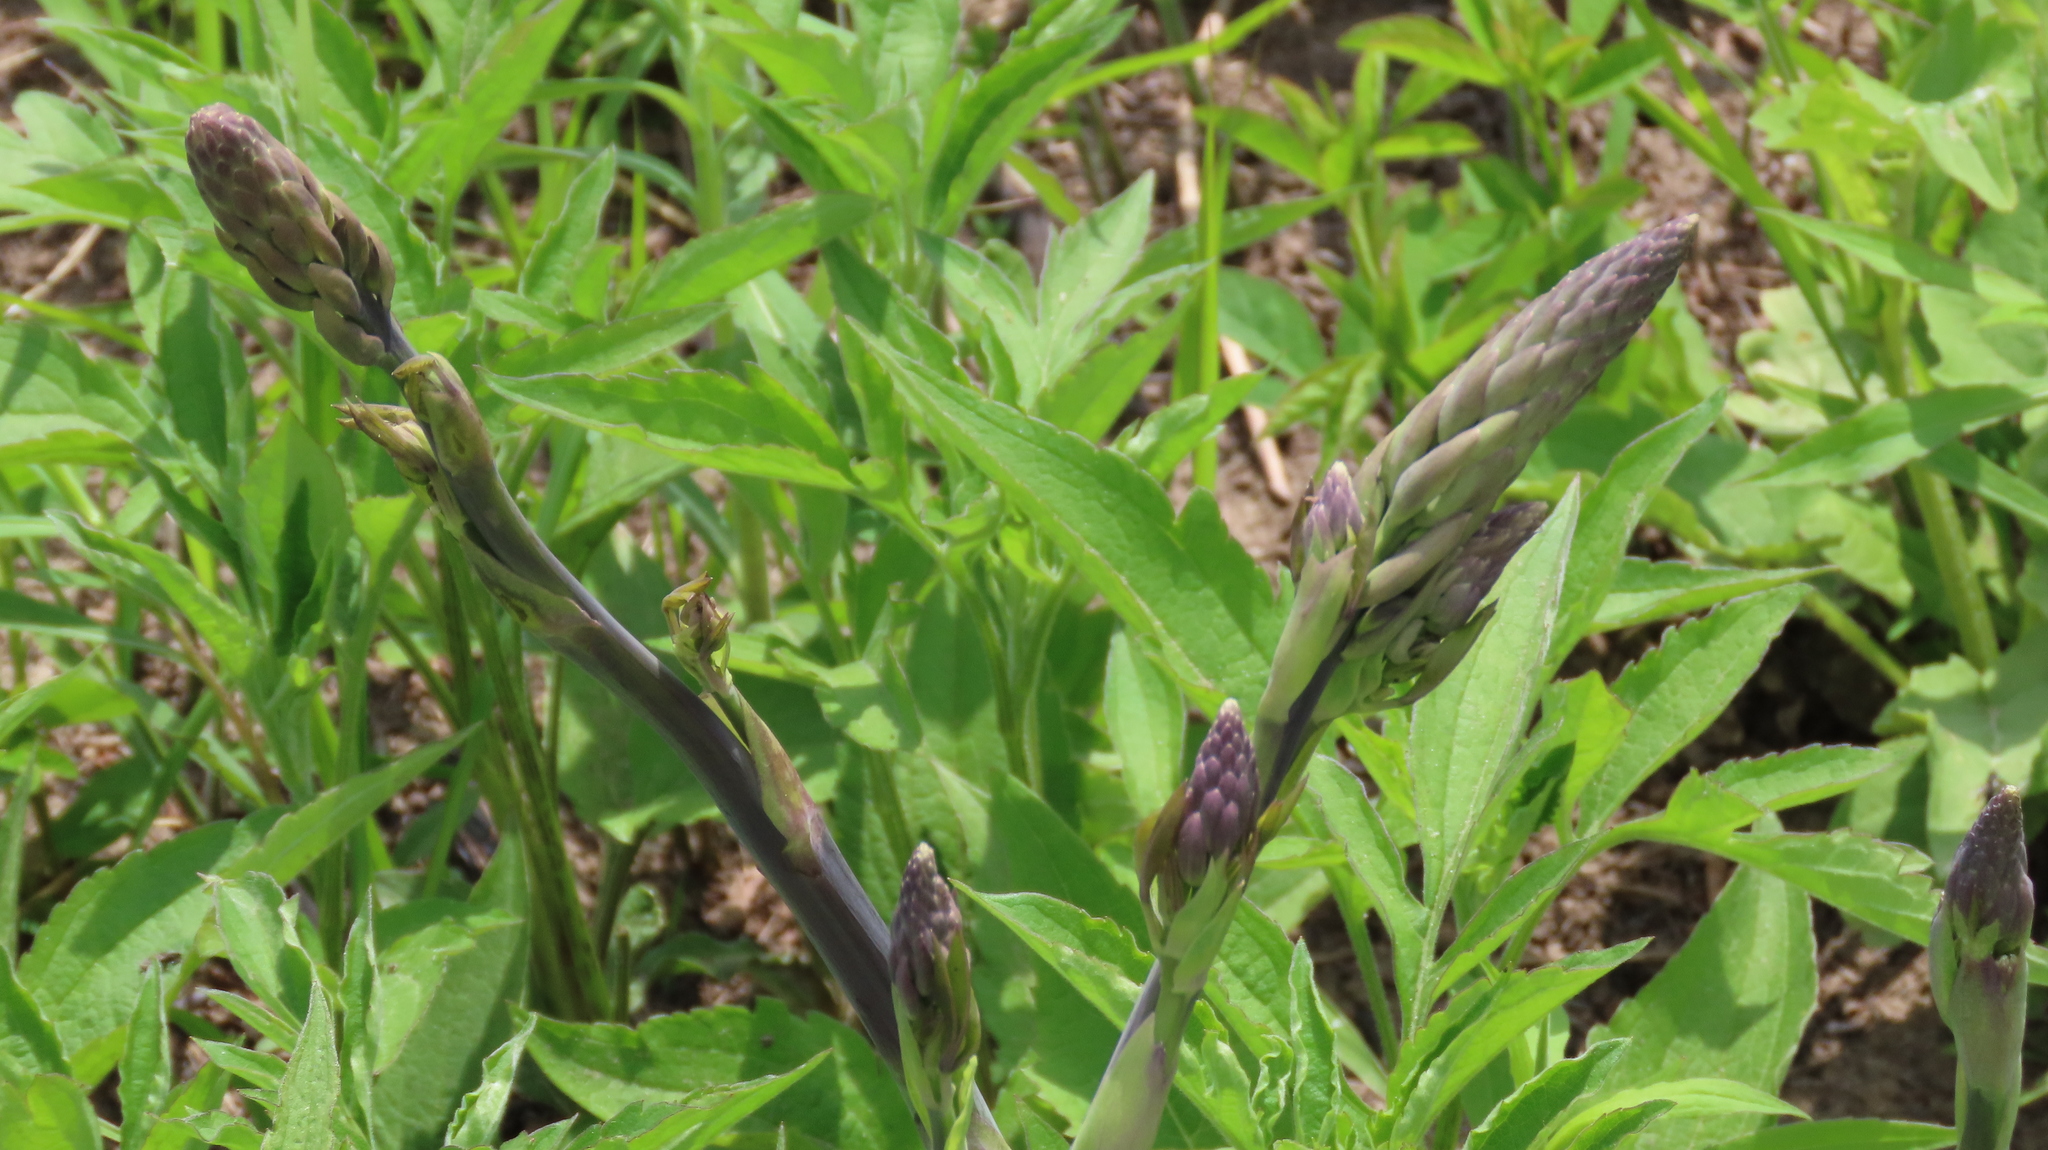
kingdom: Plantae
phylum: Tracheophyta
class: Liliopsida
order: Asparagales
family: Asparagaceae
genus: Asparagus
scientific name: Asparagus officinalis
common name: Garden asparagus
